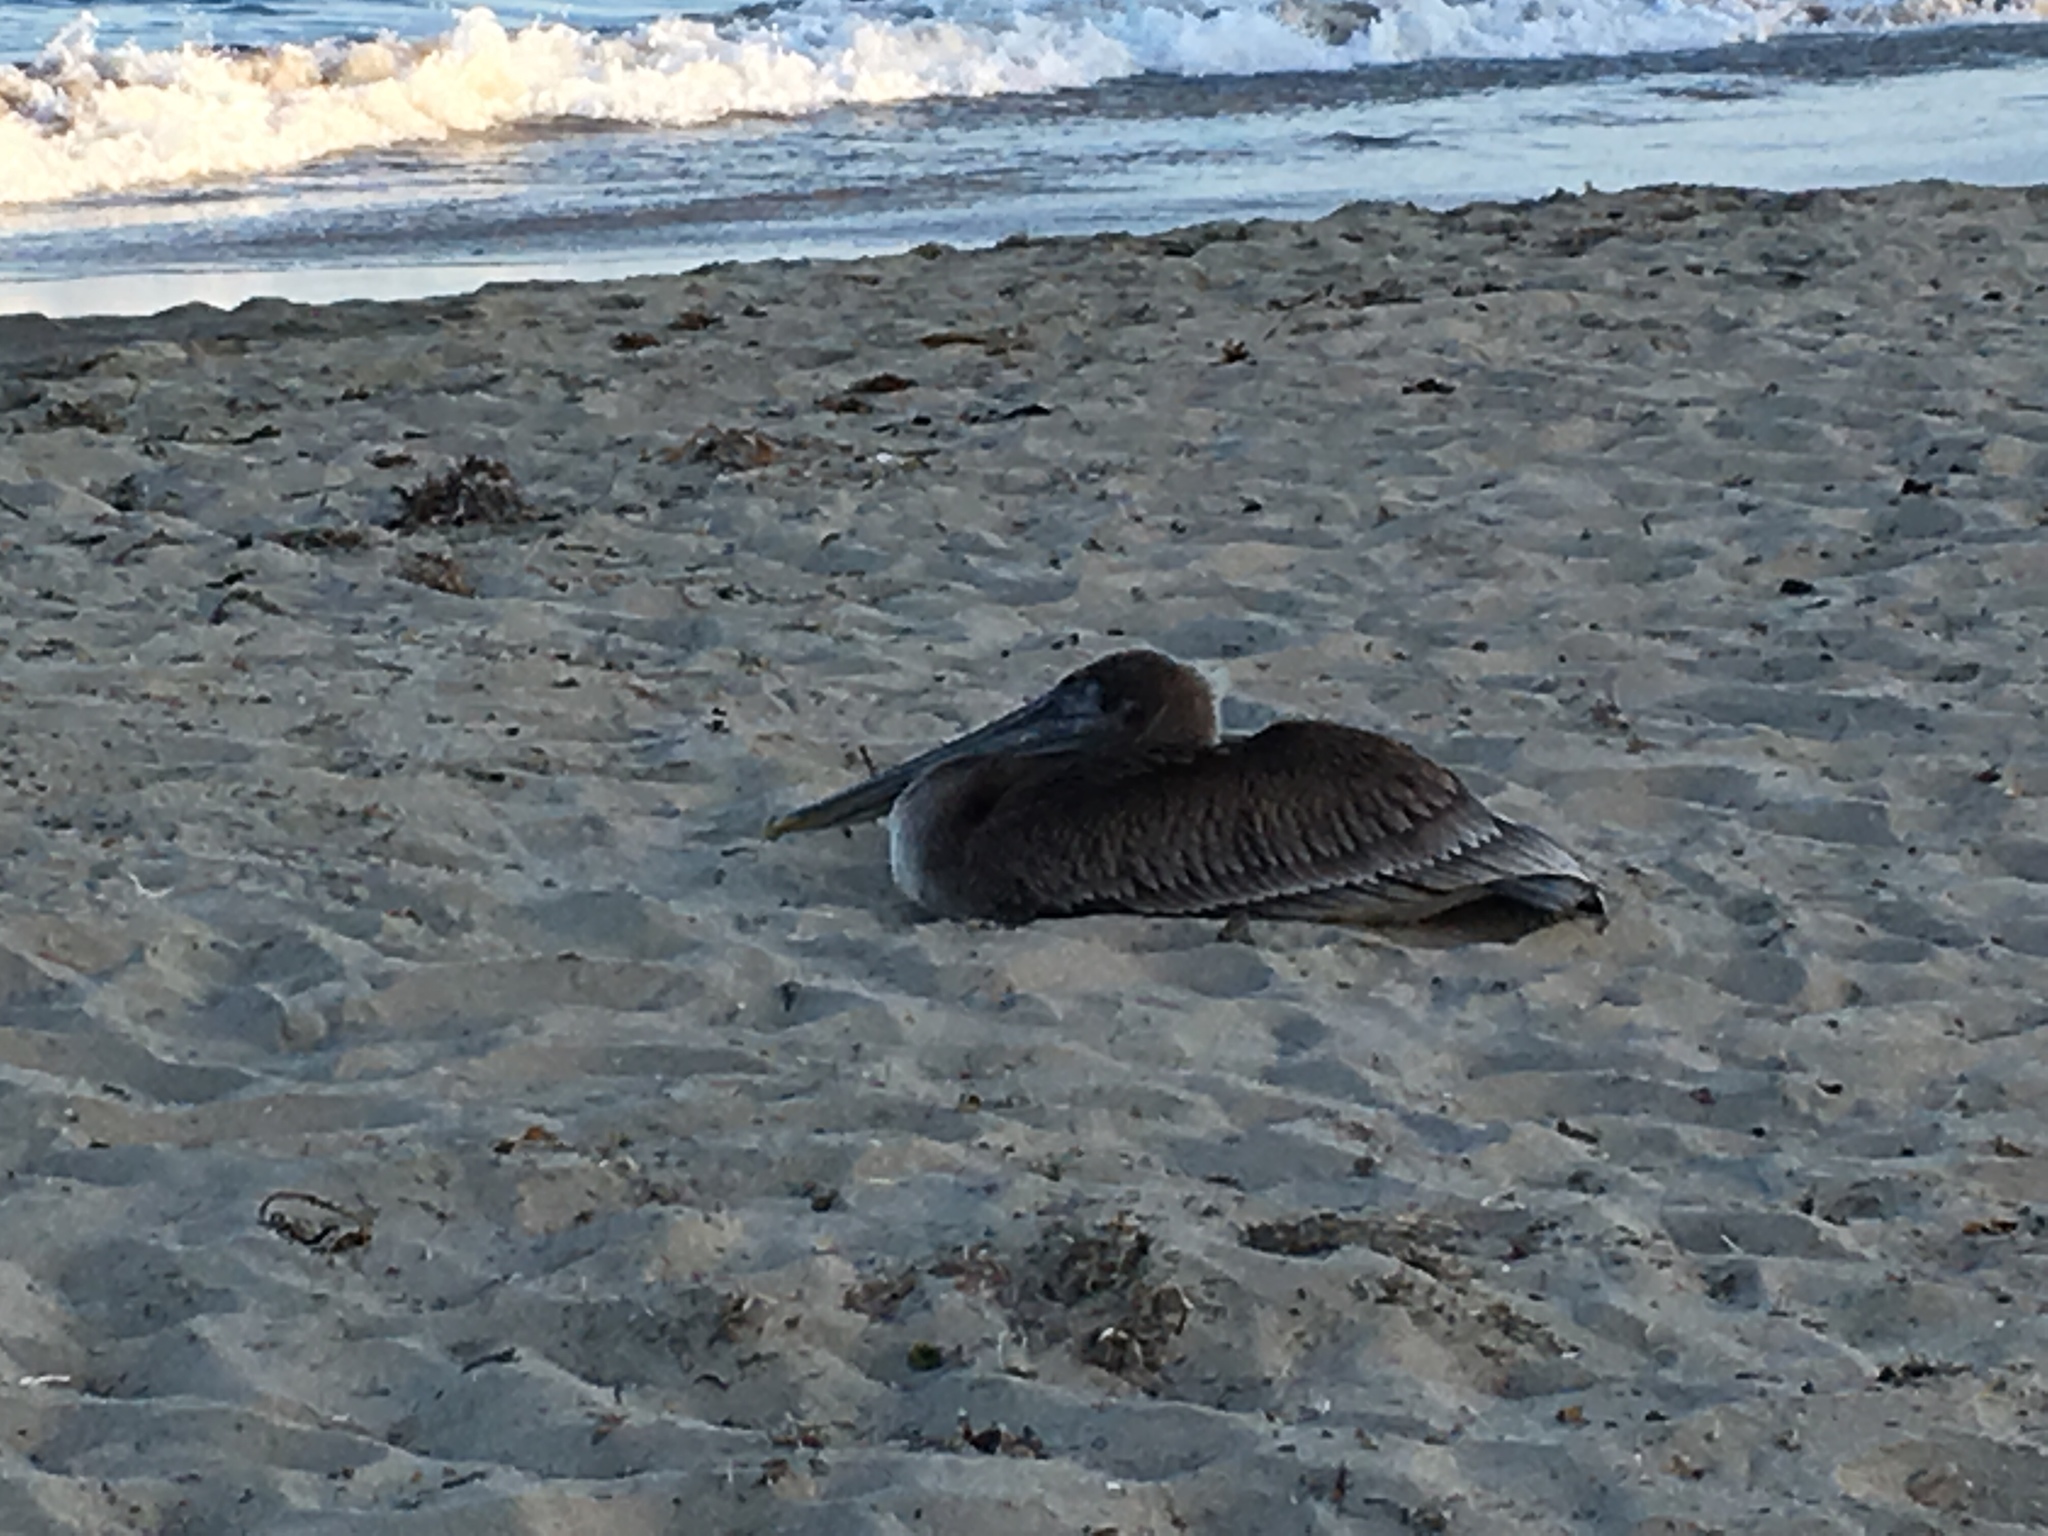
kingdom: Animalia
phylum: Chordata
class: Aves
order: Pelecaniformes
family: Pelecanidae
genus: Pelecanus
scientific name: Pelecanus occidentalis
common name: Brown pelican
